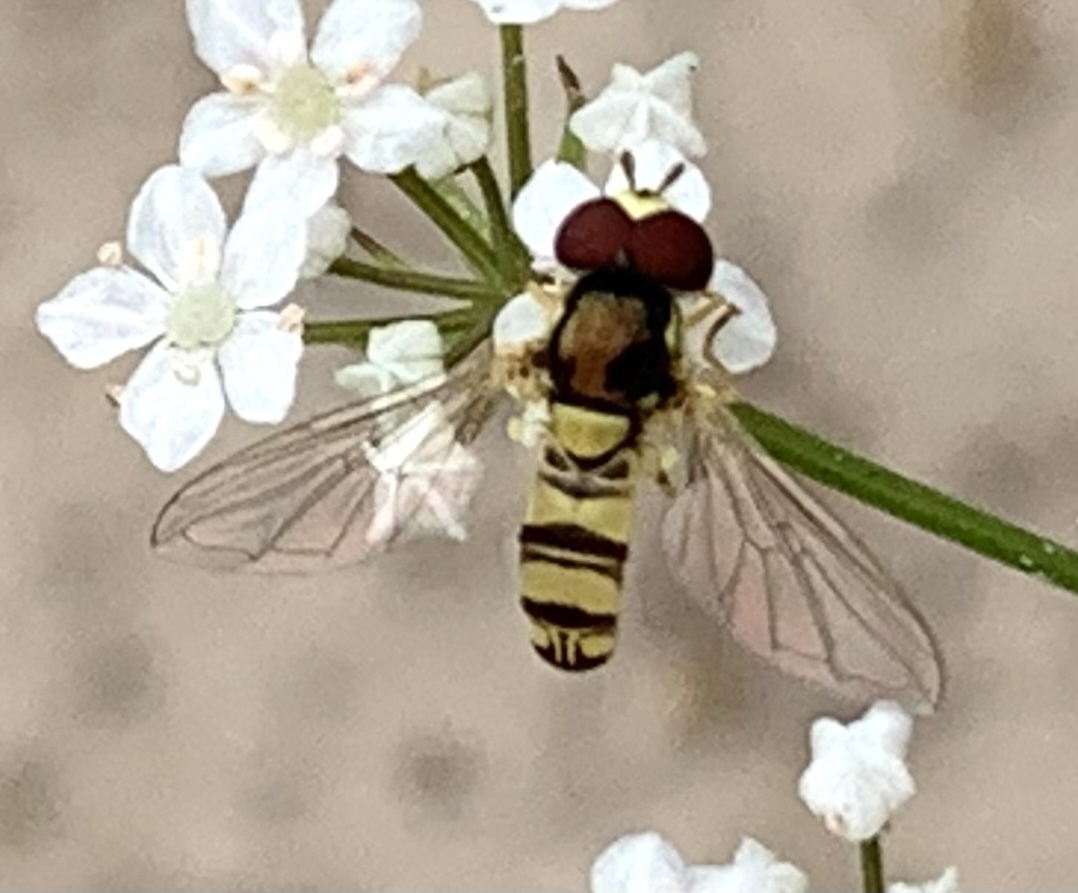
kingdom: Animalia
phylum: Arthropoda
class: Insecta
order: Diptera
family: Syrphidae
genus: Allograpta
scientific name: Allograpta exotica
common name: Syrphid fly
